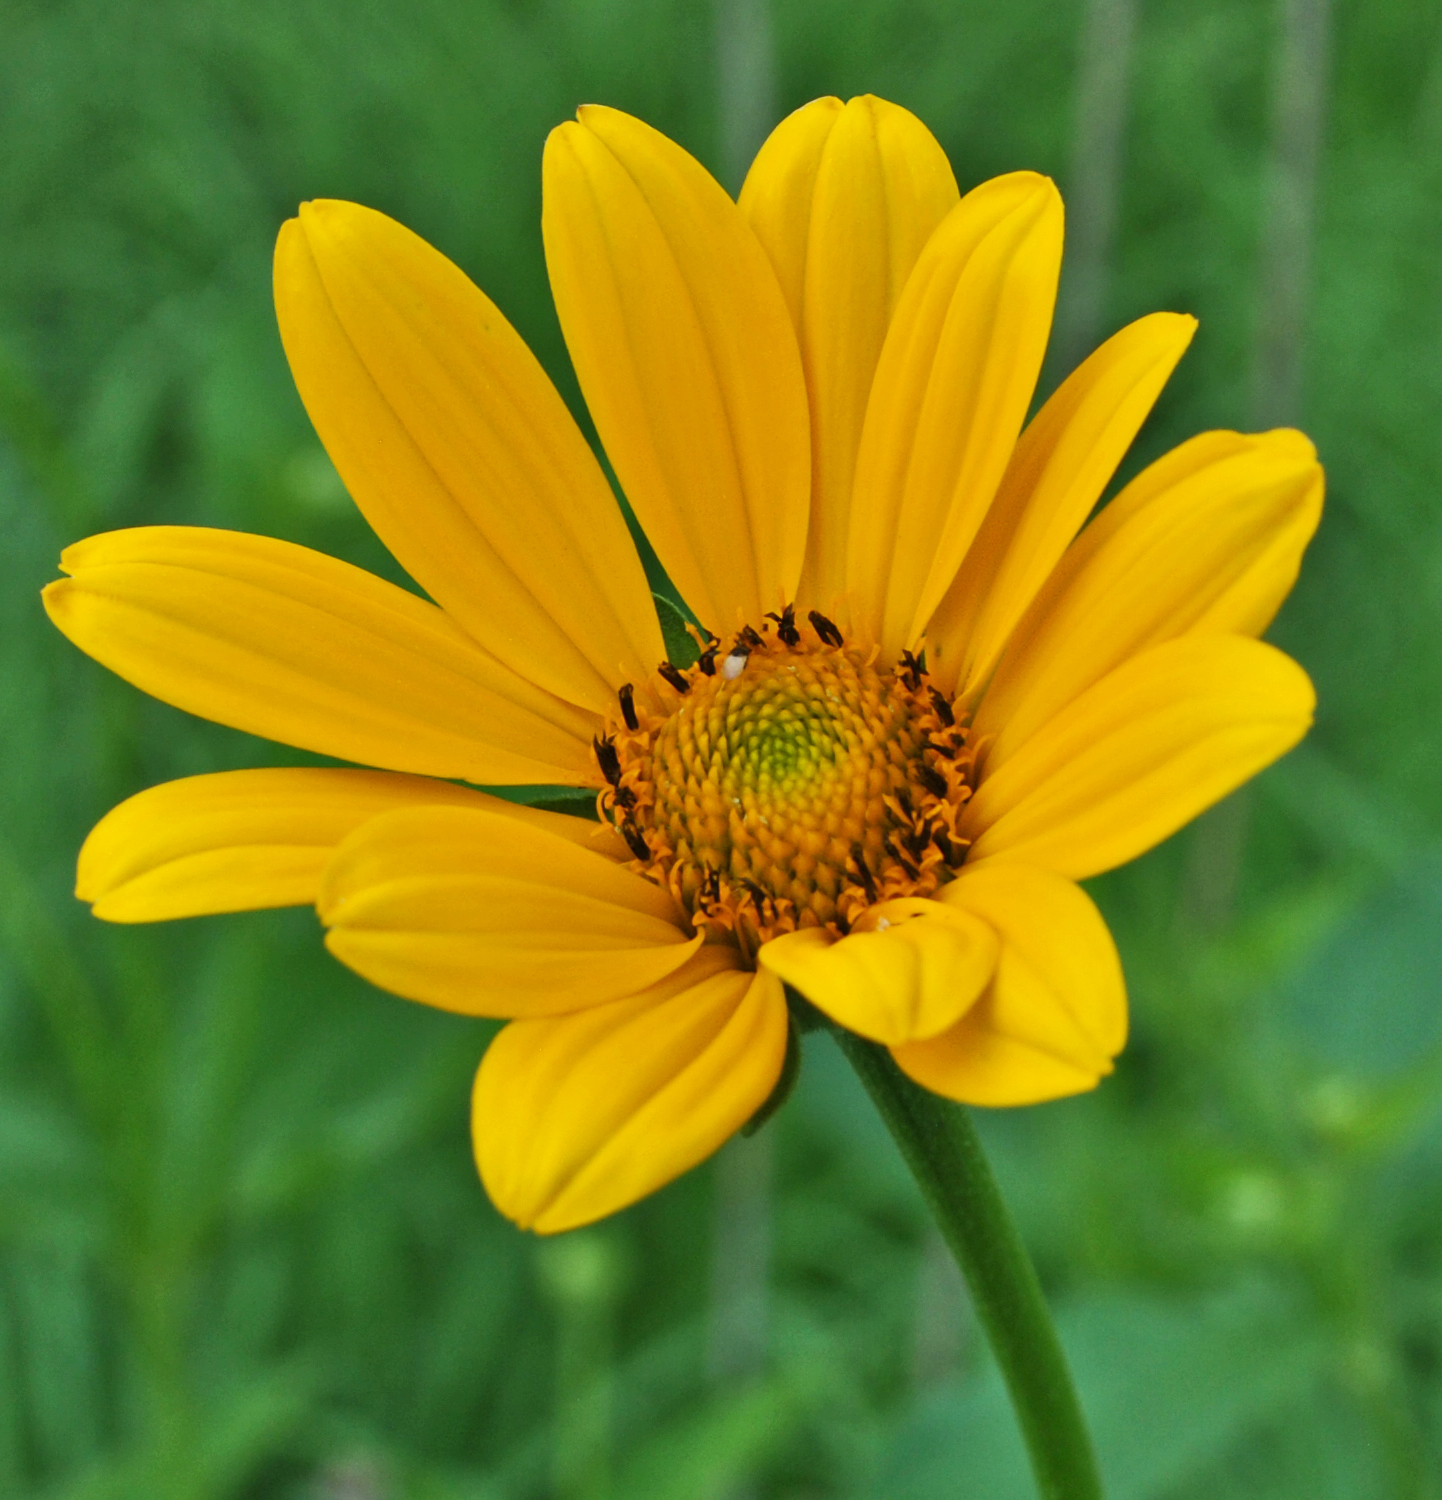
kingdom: Plantae
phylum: Tracheophyta
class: Magnoliopsida
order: Asterales
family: Asteraceae
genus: Heliopsis
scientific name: Heliopsis helianthoides
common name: False sunflower
